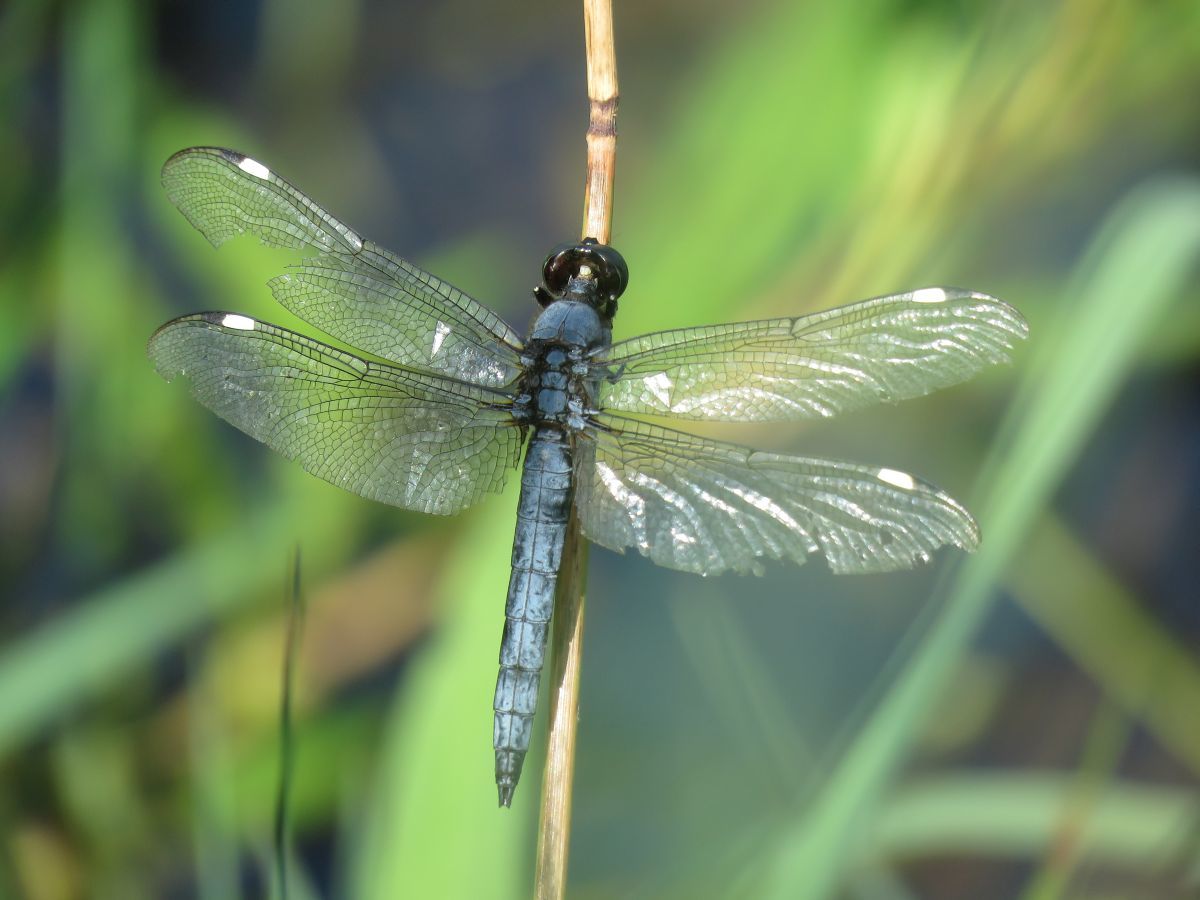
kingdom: Animalia
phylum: Arthropoda
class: Insecta
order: Odonata
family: Libellulidae
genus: Libellula
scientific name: Libellula cyanea
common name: Spangled skimmer
